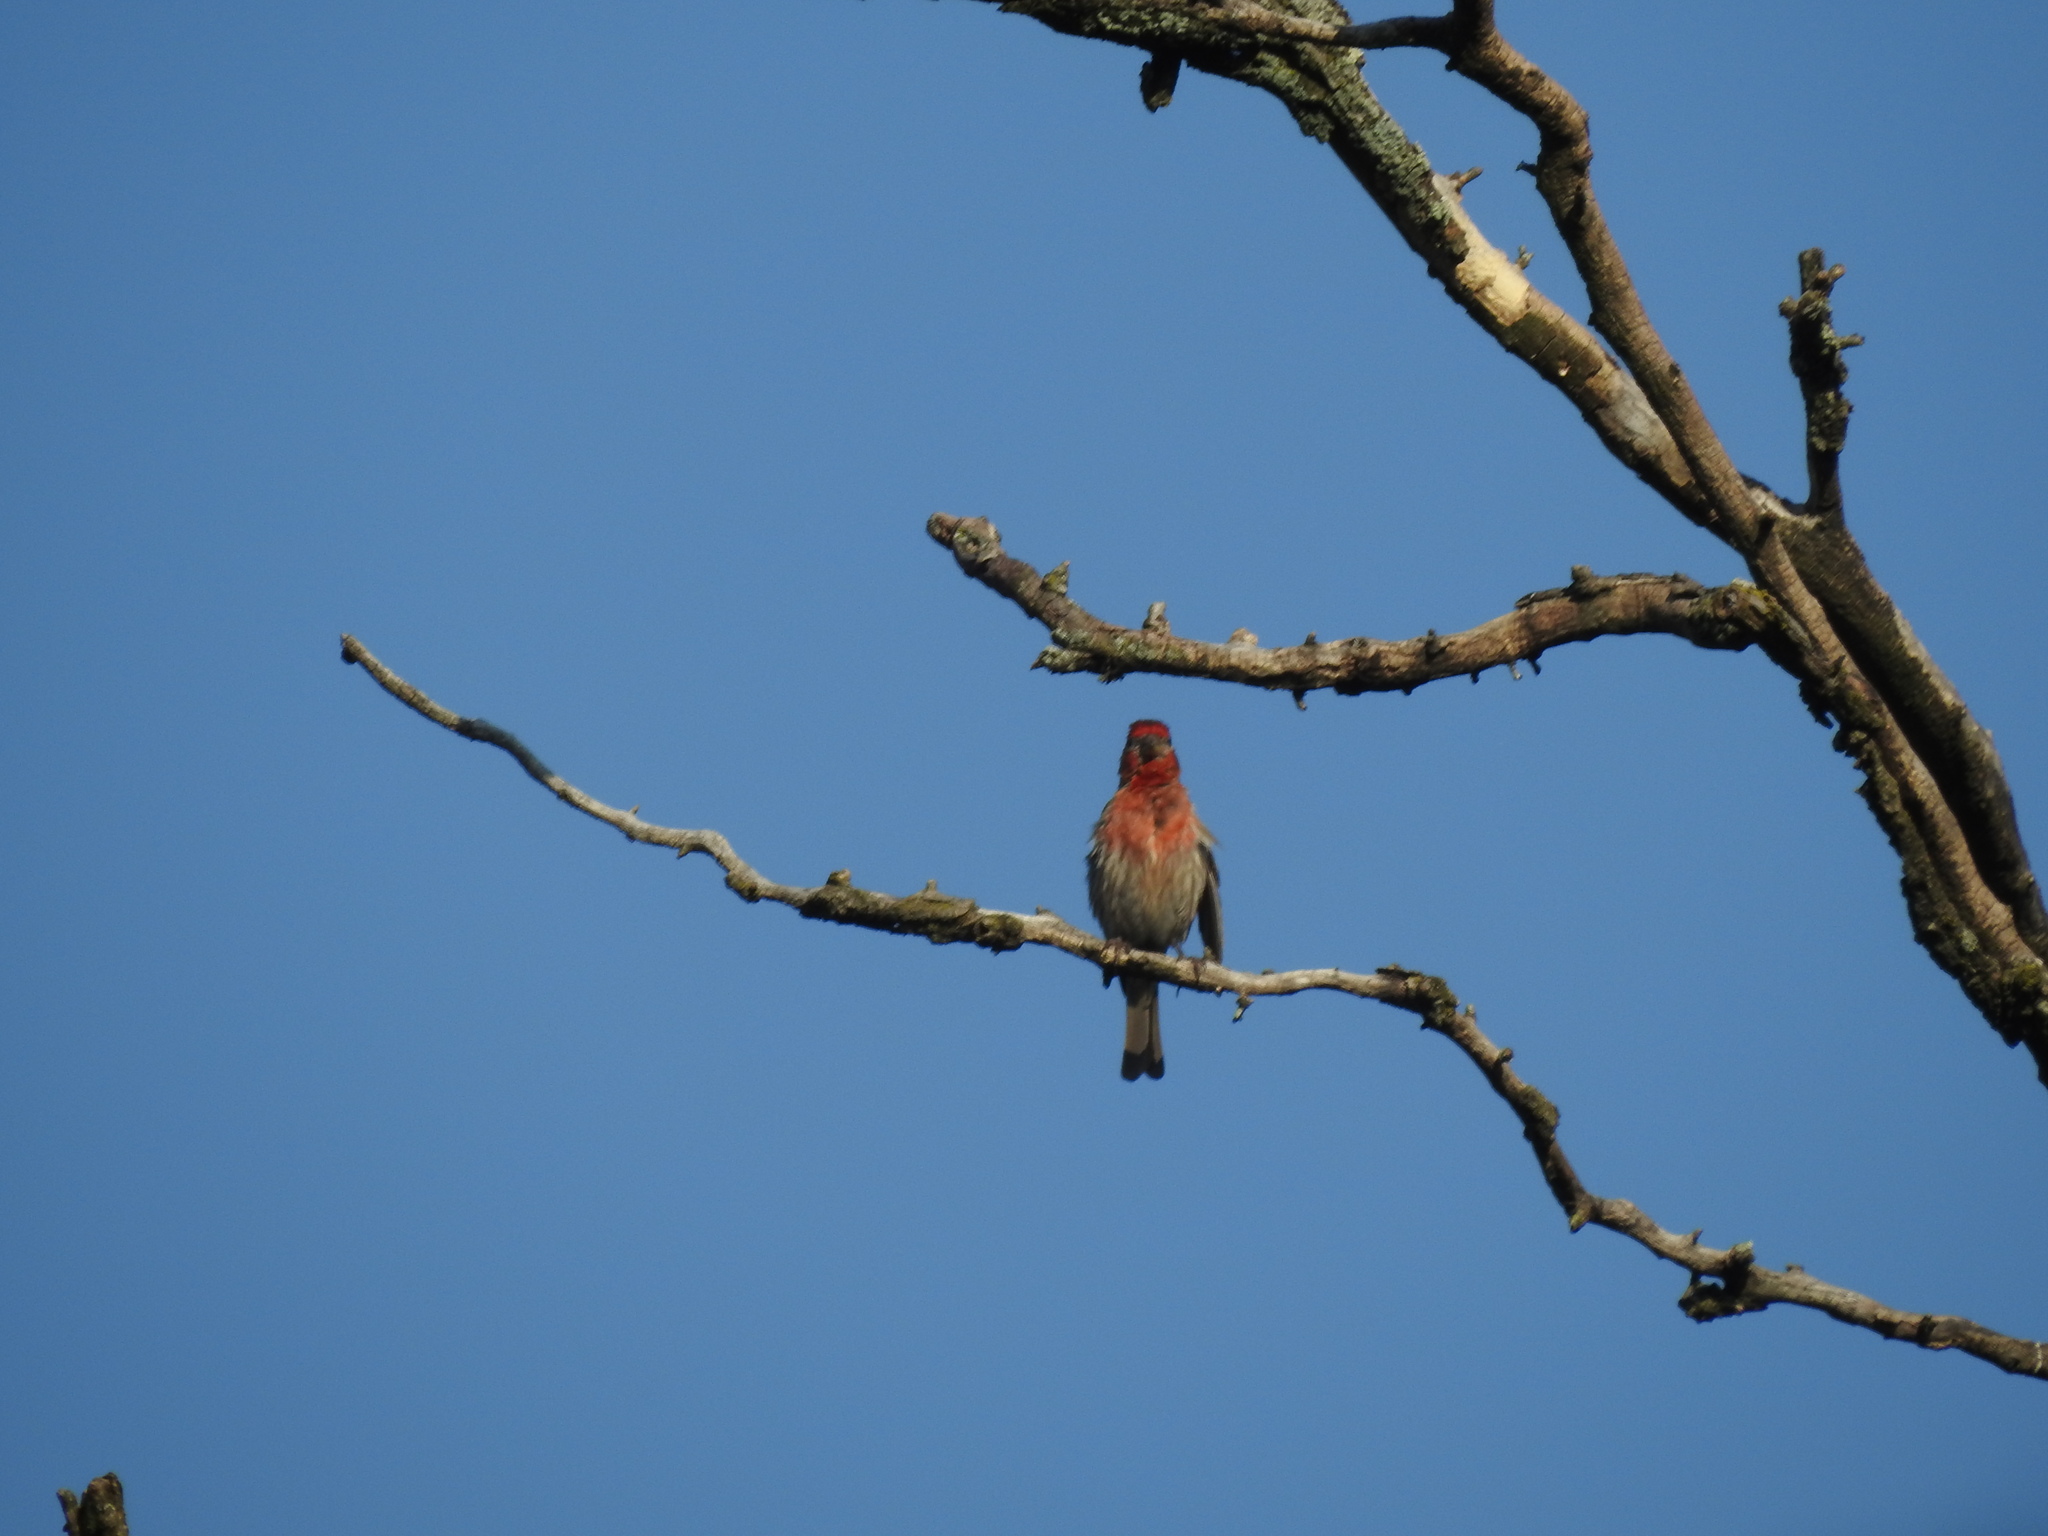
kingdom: Animalia
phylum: Chordata
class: Aves
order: Passeriformes
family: Fringillidae
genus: Haemorhous
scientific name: Haemorhous mexicanus
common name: House finch
